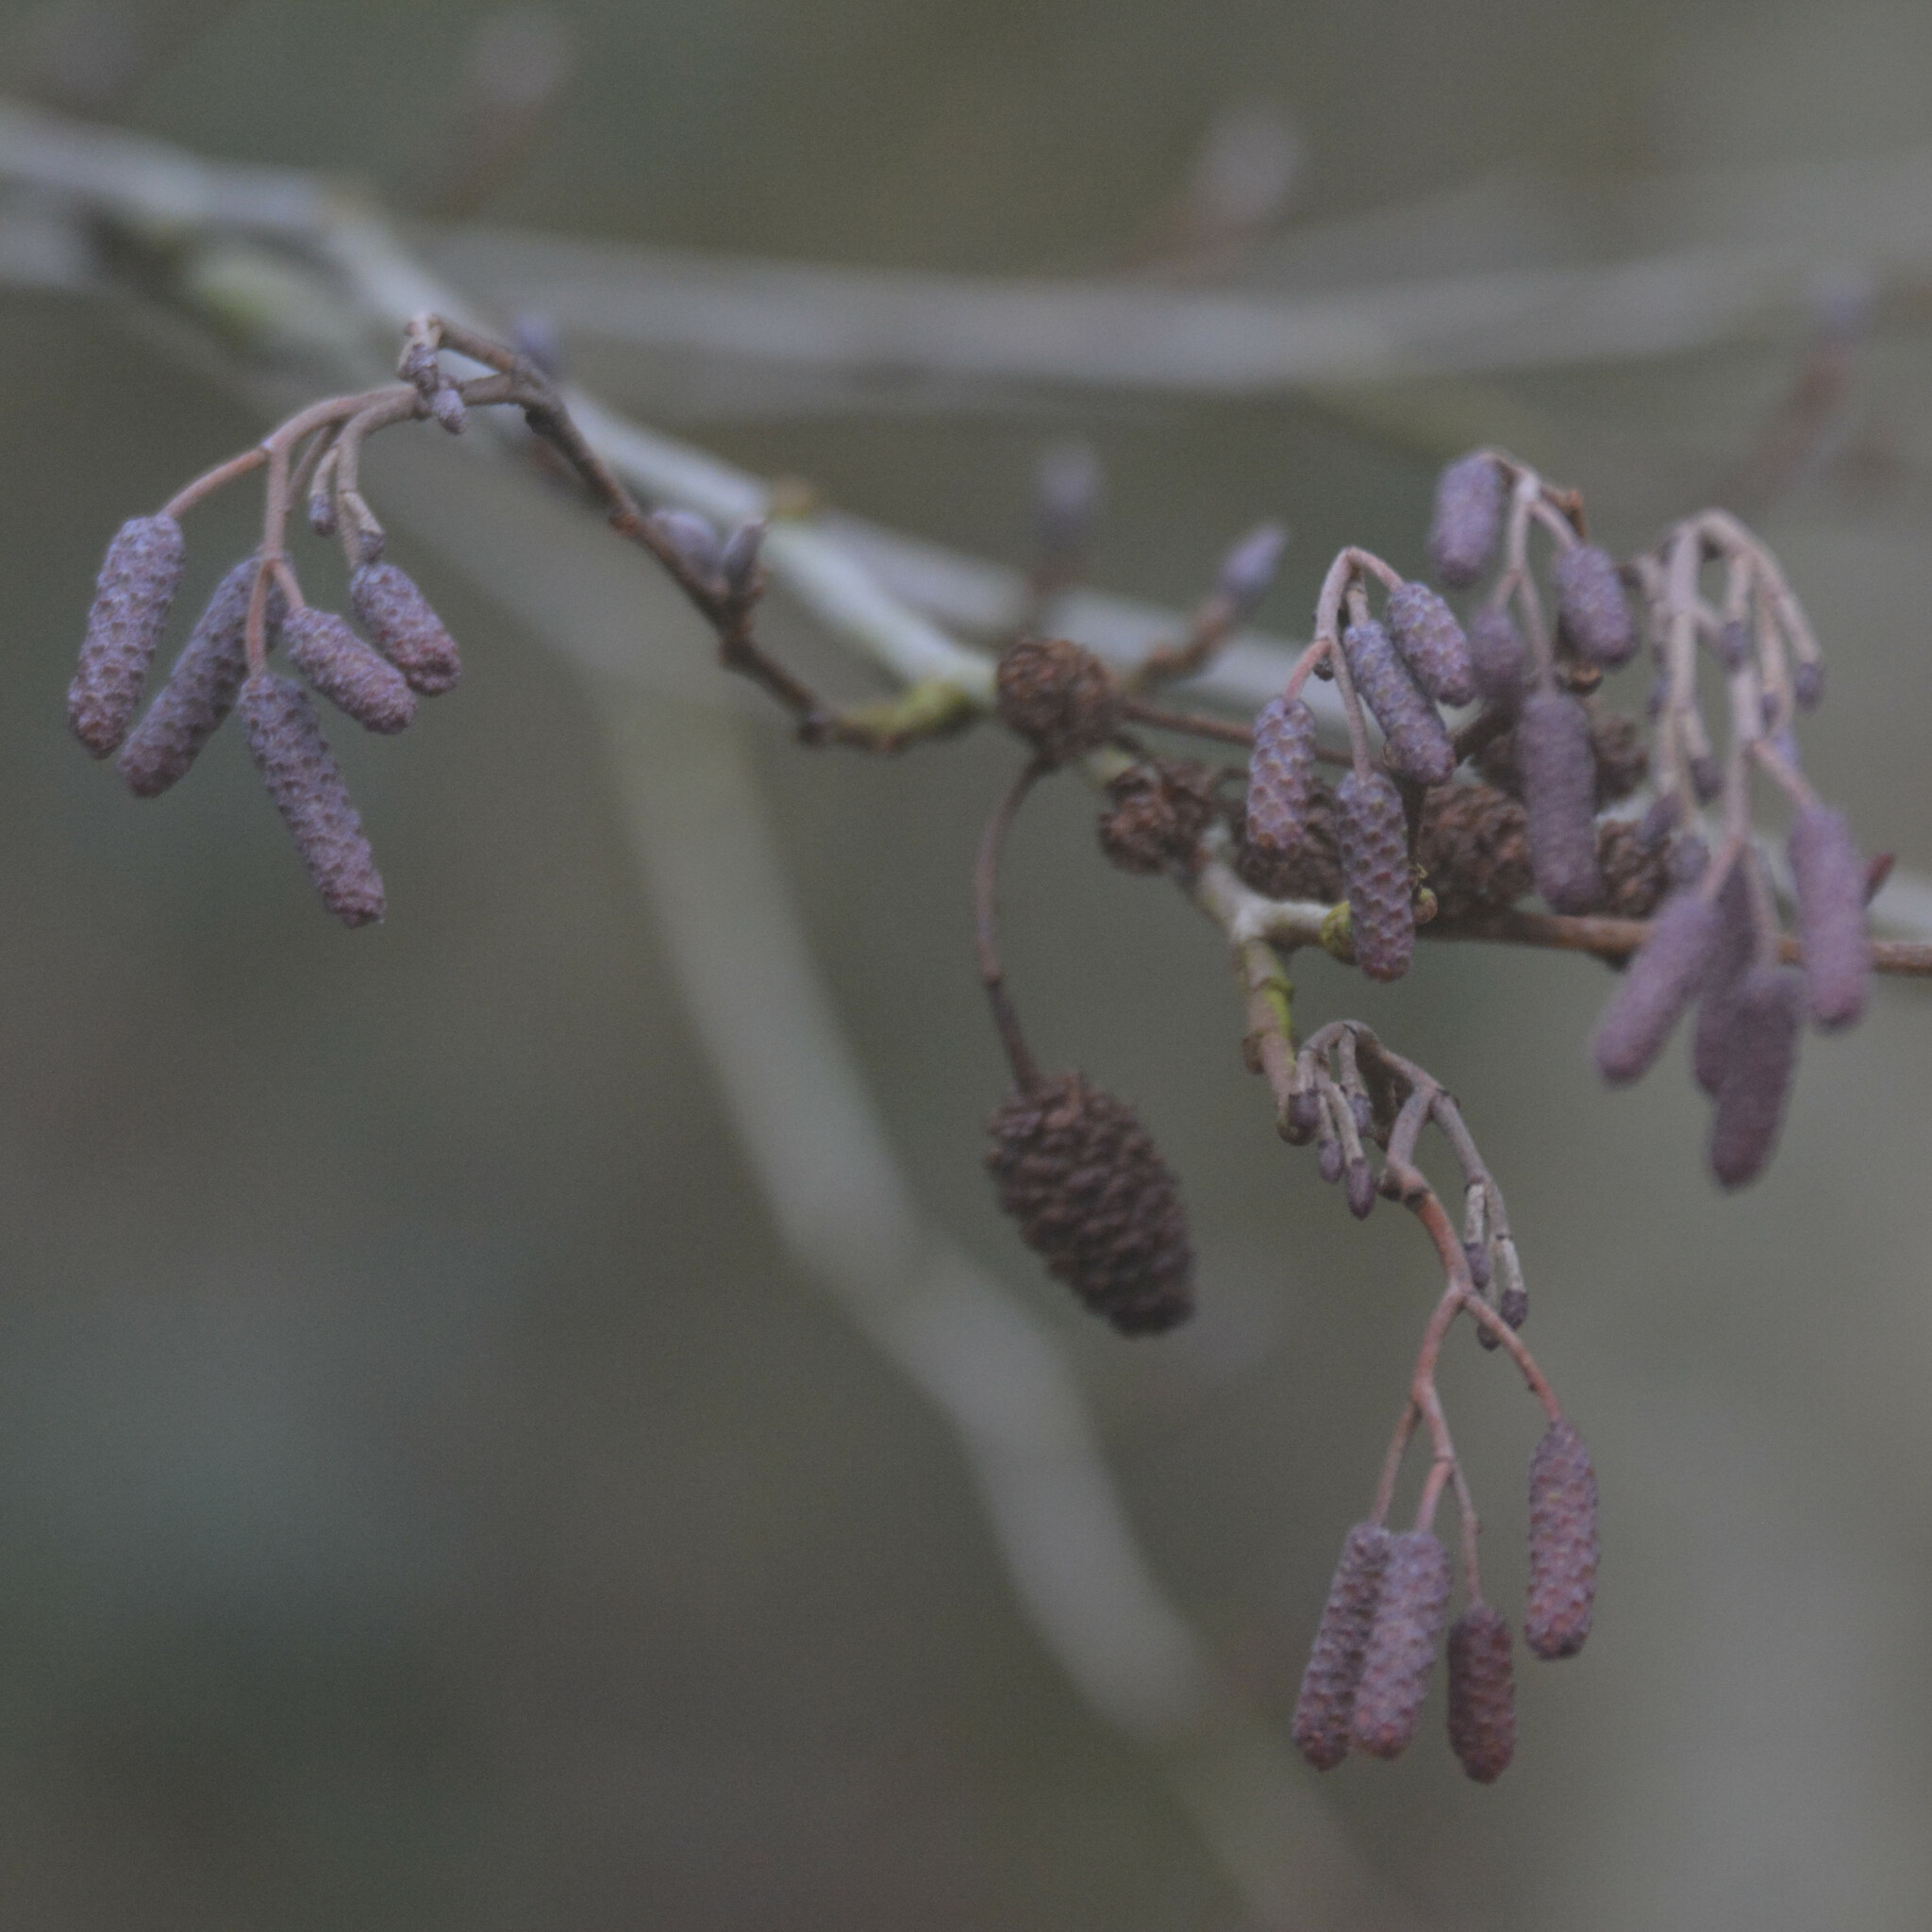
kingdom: Plantae
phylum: Tracheophyta
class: Magnoliopsida
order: Fagales
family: Betulaceae
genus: Alnus
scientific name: Alnus glutinosa
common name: Black alder
